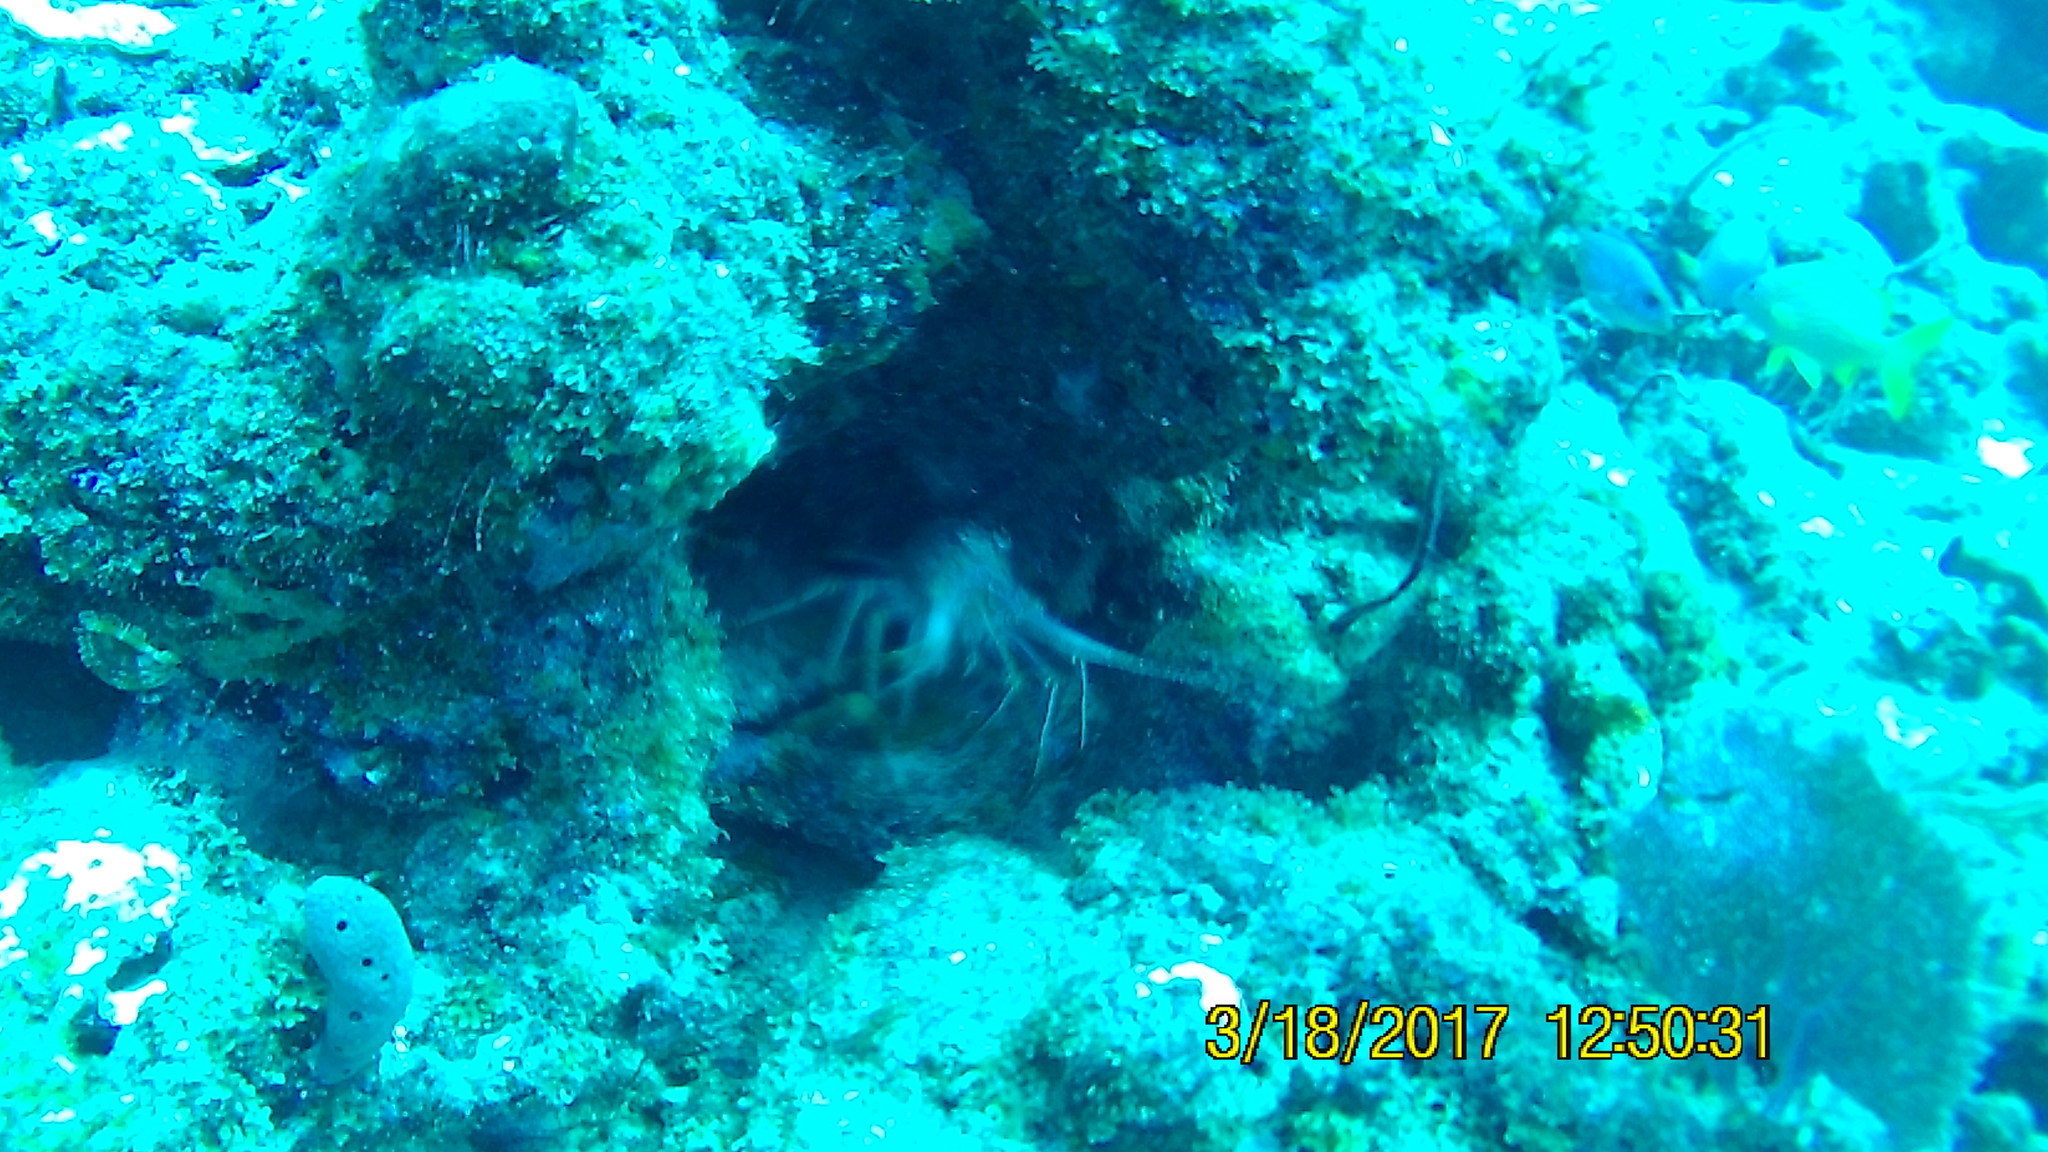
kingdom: Animalia
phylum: Arthropoda
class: Malacostraca
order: Decapoda
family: Palinuridae
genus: Panulirus
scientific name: Panulirus argus
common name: Caribbean spiny lobster
